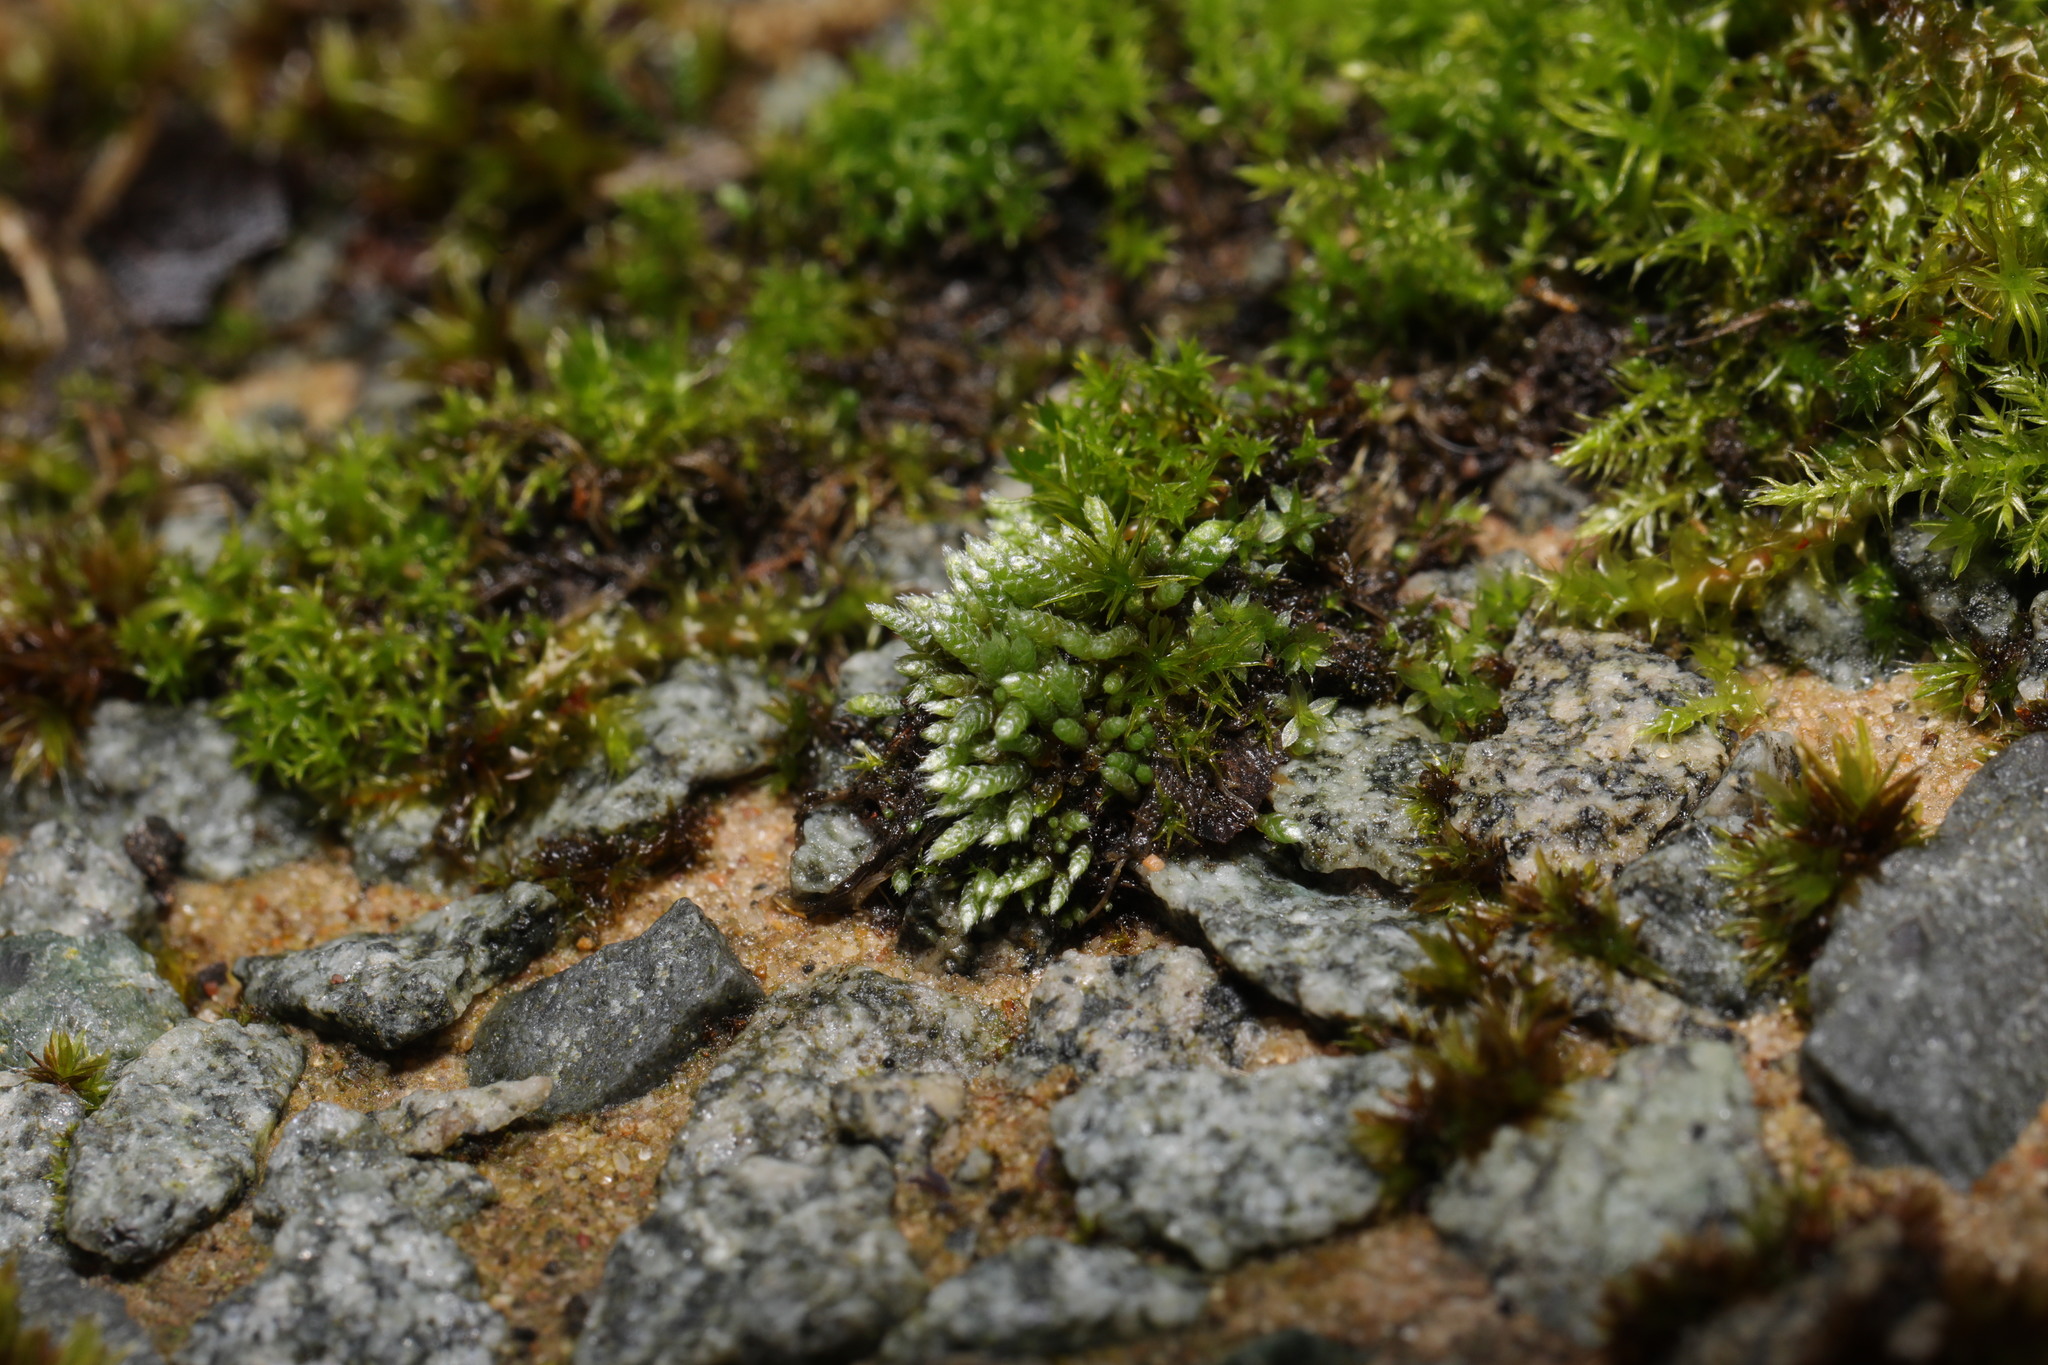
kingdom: Plantae
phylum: Bryophyta
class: Bryopsida
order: Bryales
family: Bryaceae
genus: Bryum
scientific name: Bryum argenteum
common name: Silver-moss
